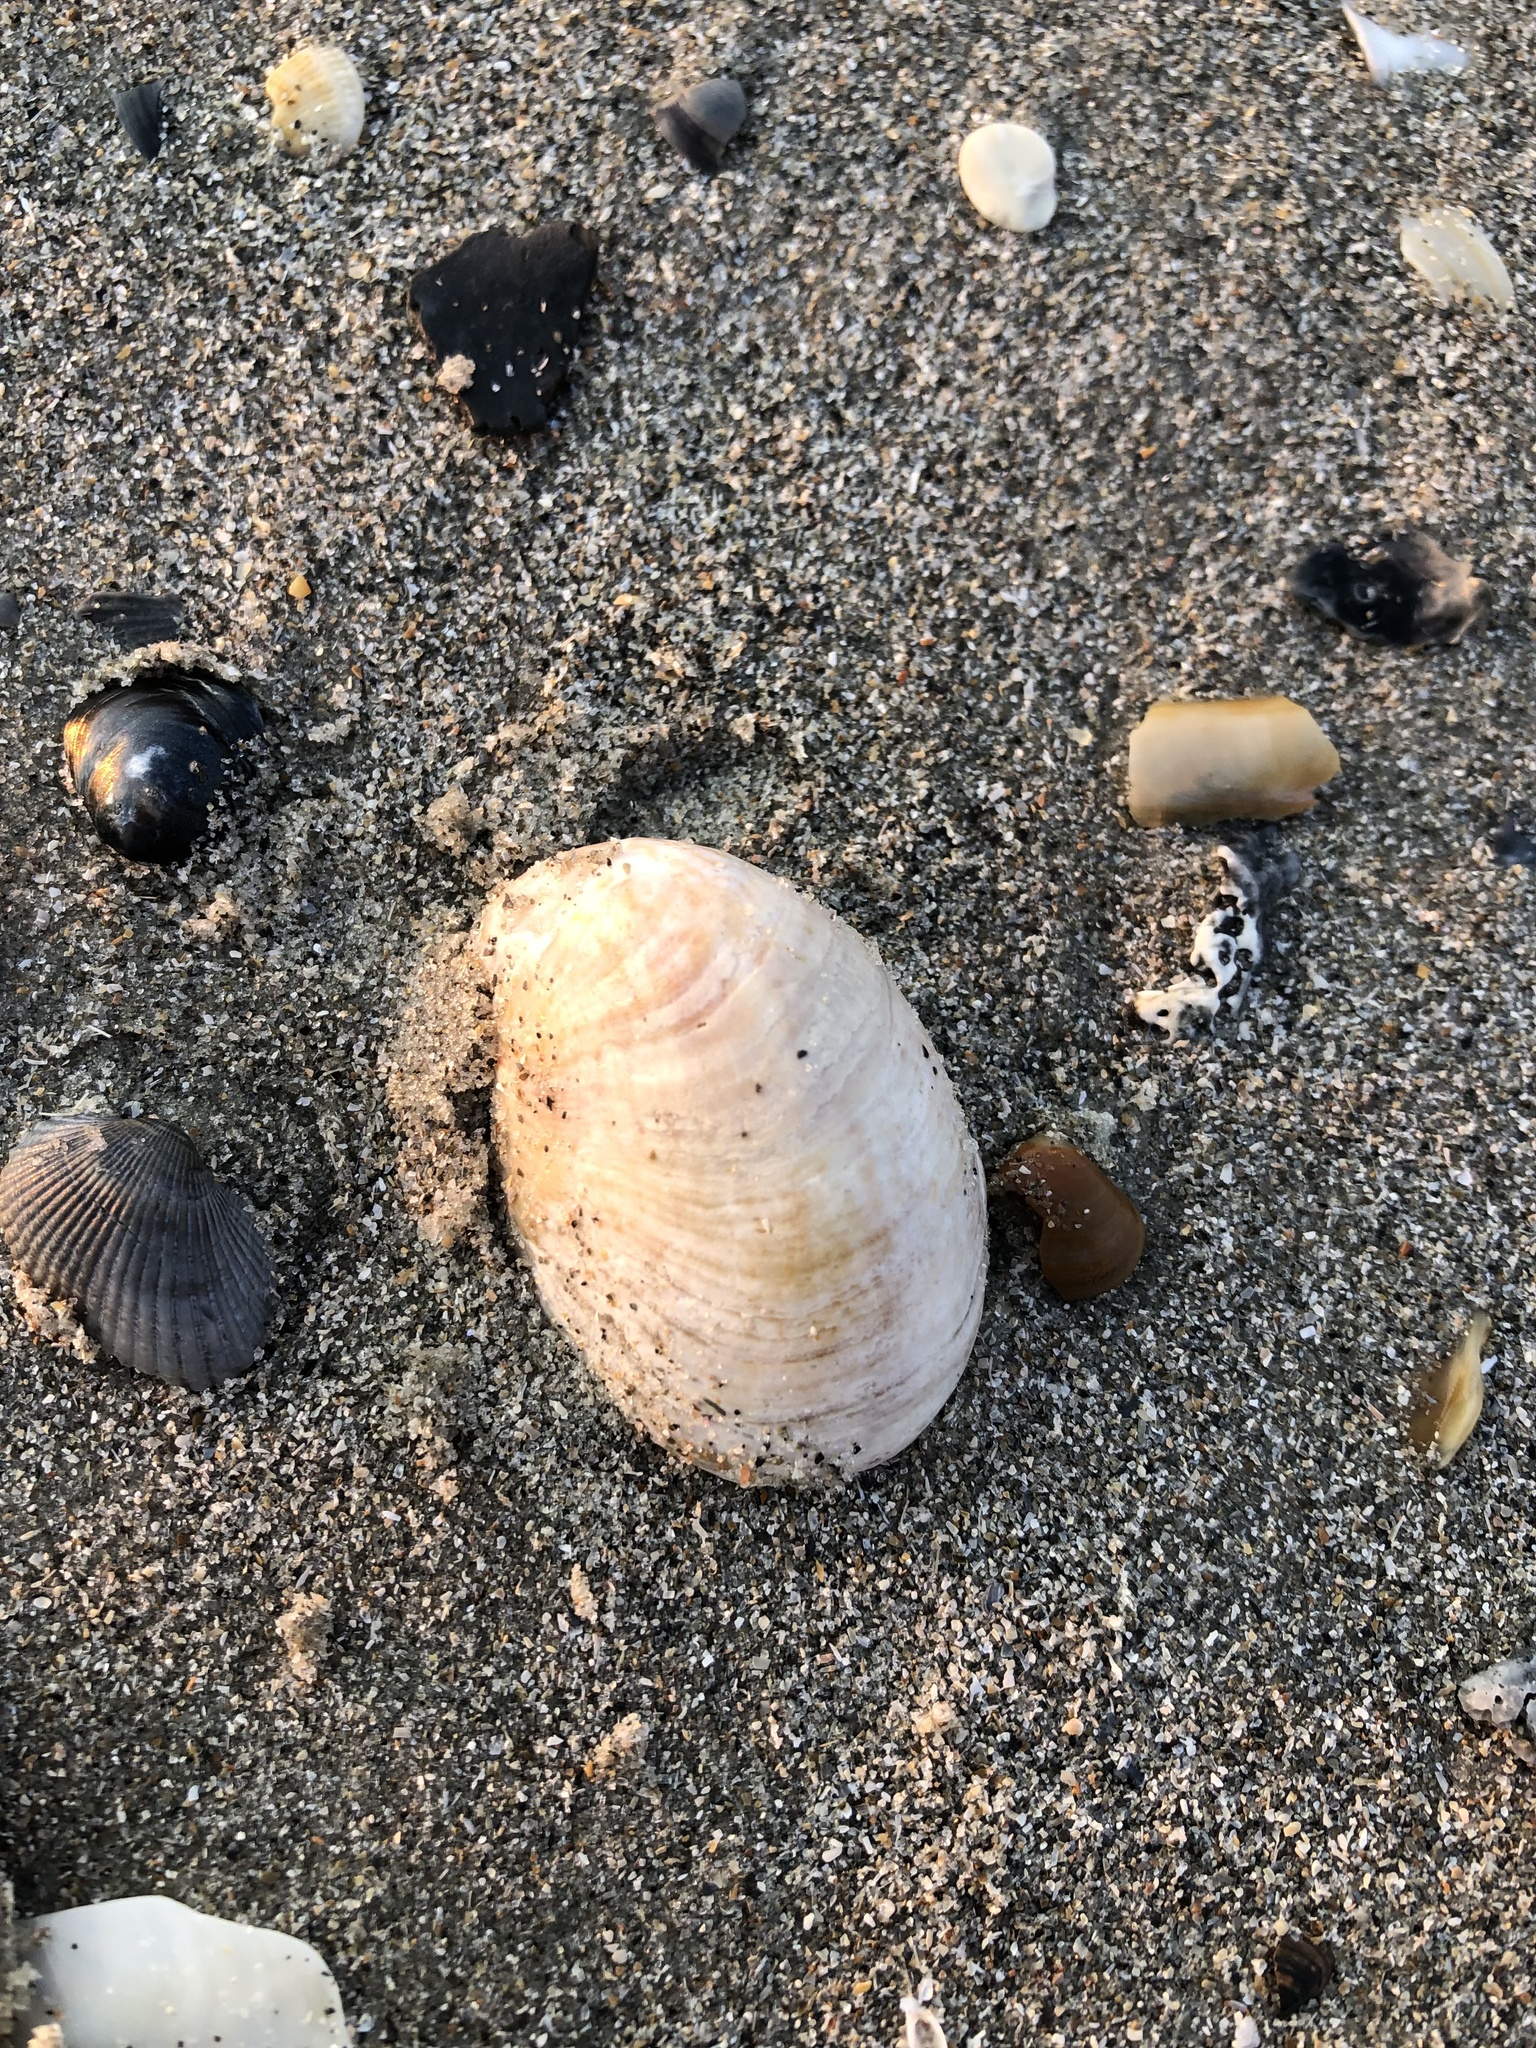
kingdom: Animalia
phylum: Mollusca
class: Gastropoda
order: Littorinimorpha
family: Calyptraeidae
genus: Crepidula
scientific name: Crepidula fornicata
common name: Slipper limpet
